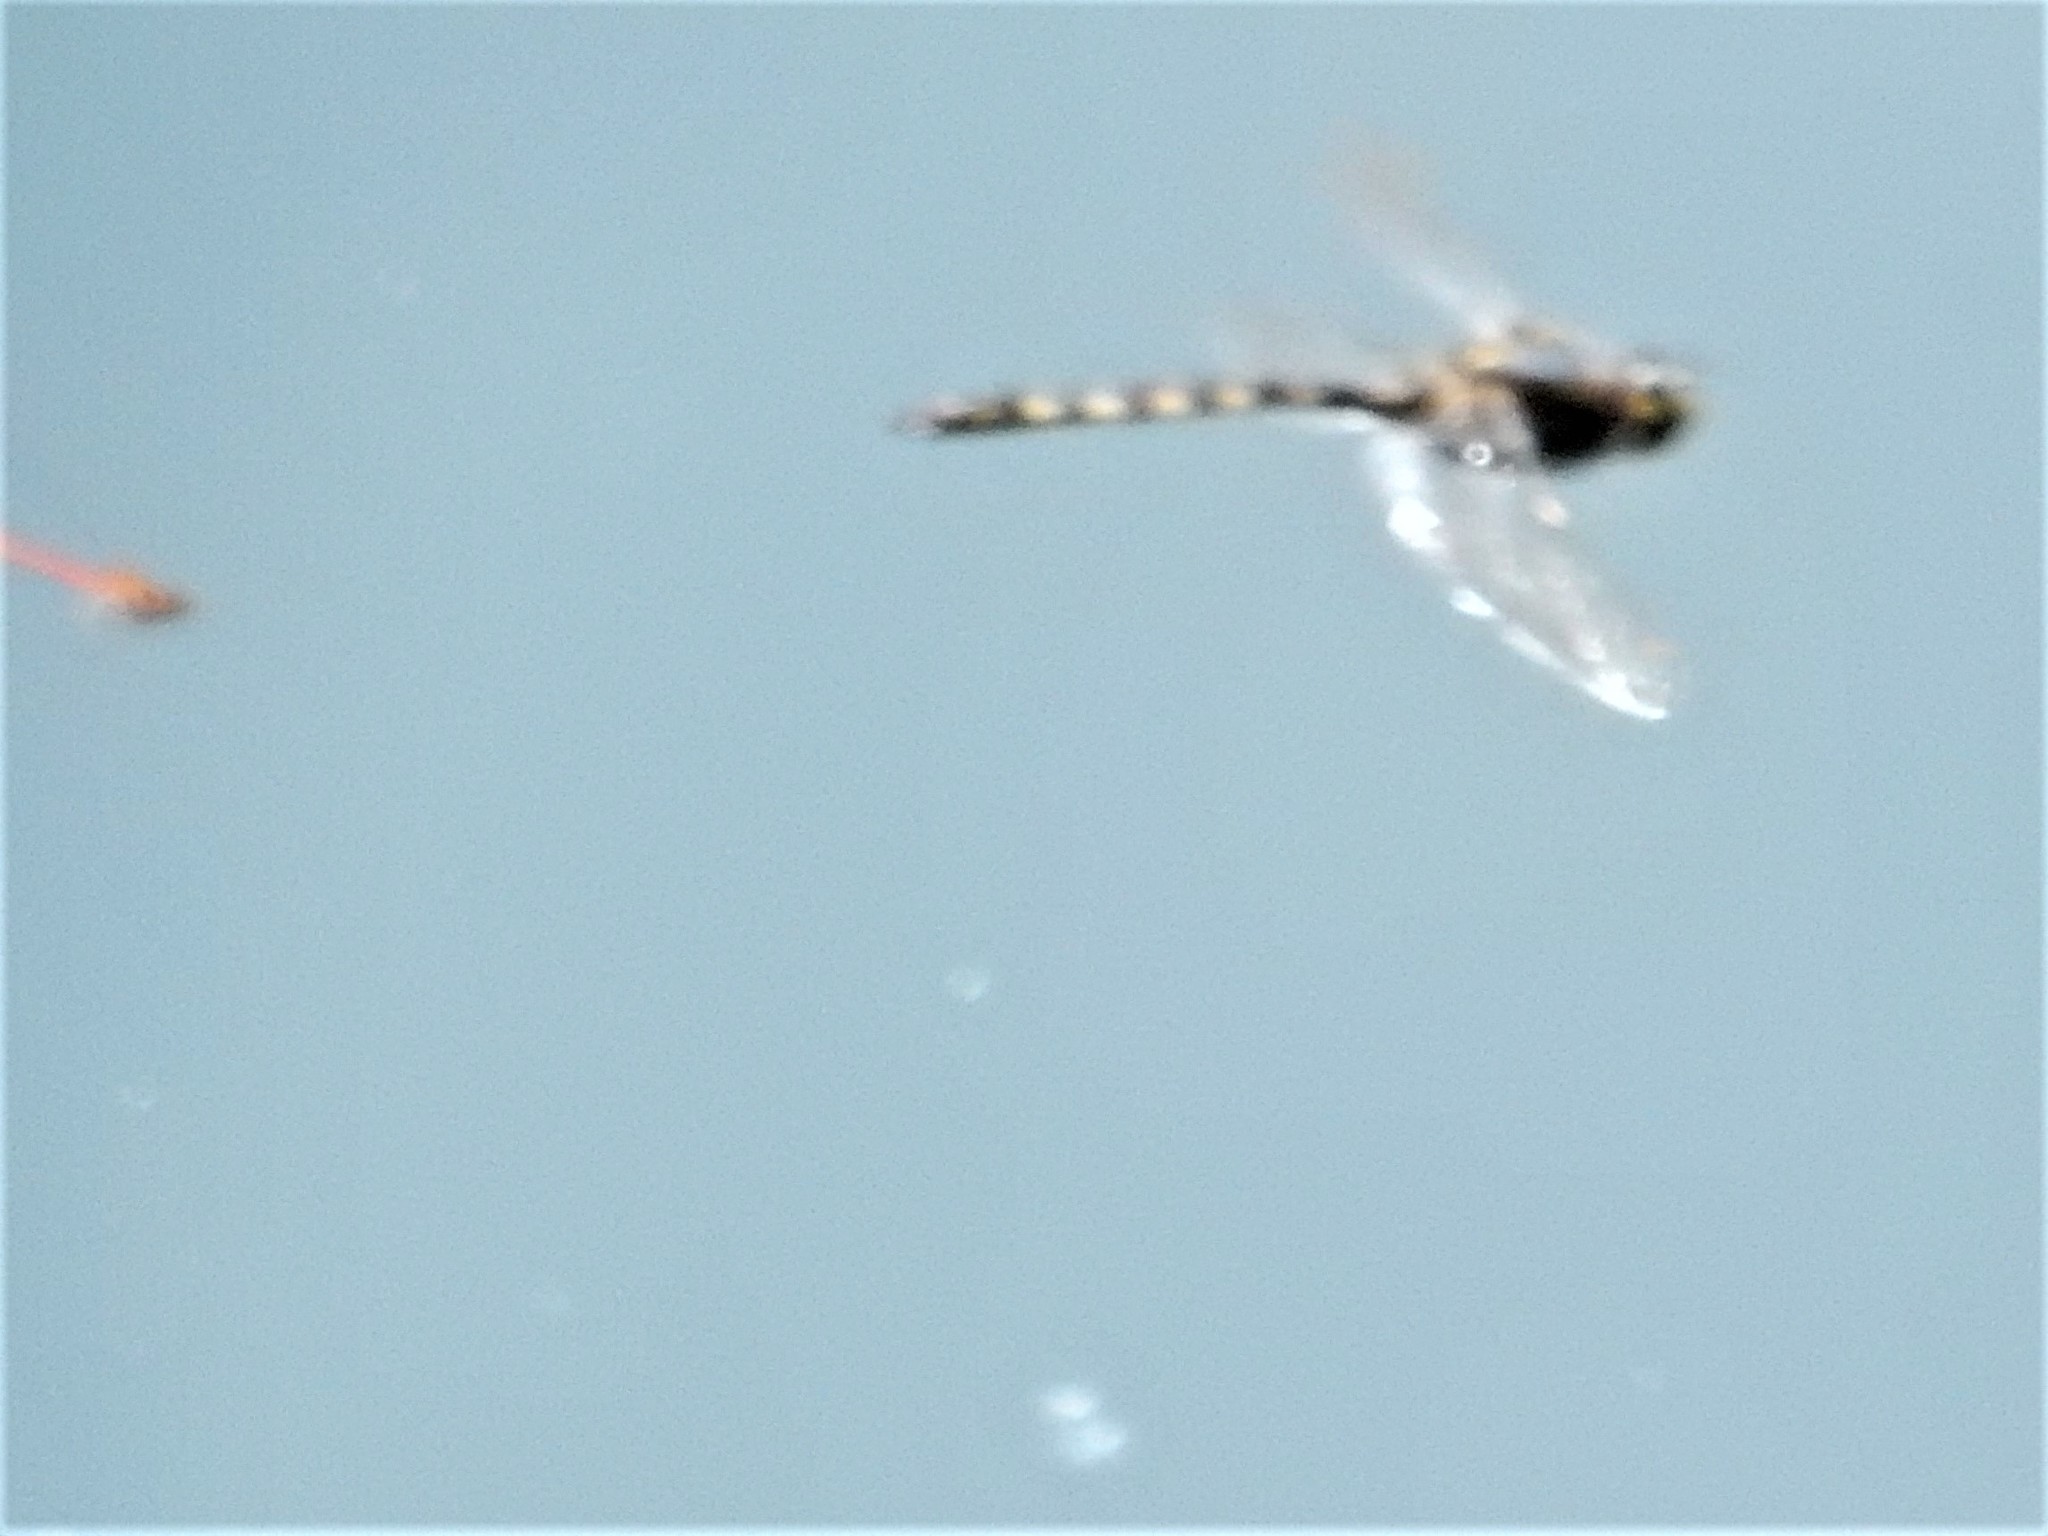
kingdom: Animalia
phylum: Arthropoda
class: Insecta
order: Odonata
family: Corduliidae
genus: Procordulia
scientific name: Procordulia grayi
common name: Yellow spotted dragonfly
